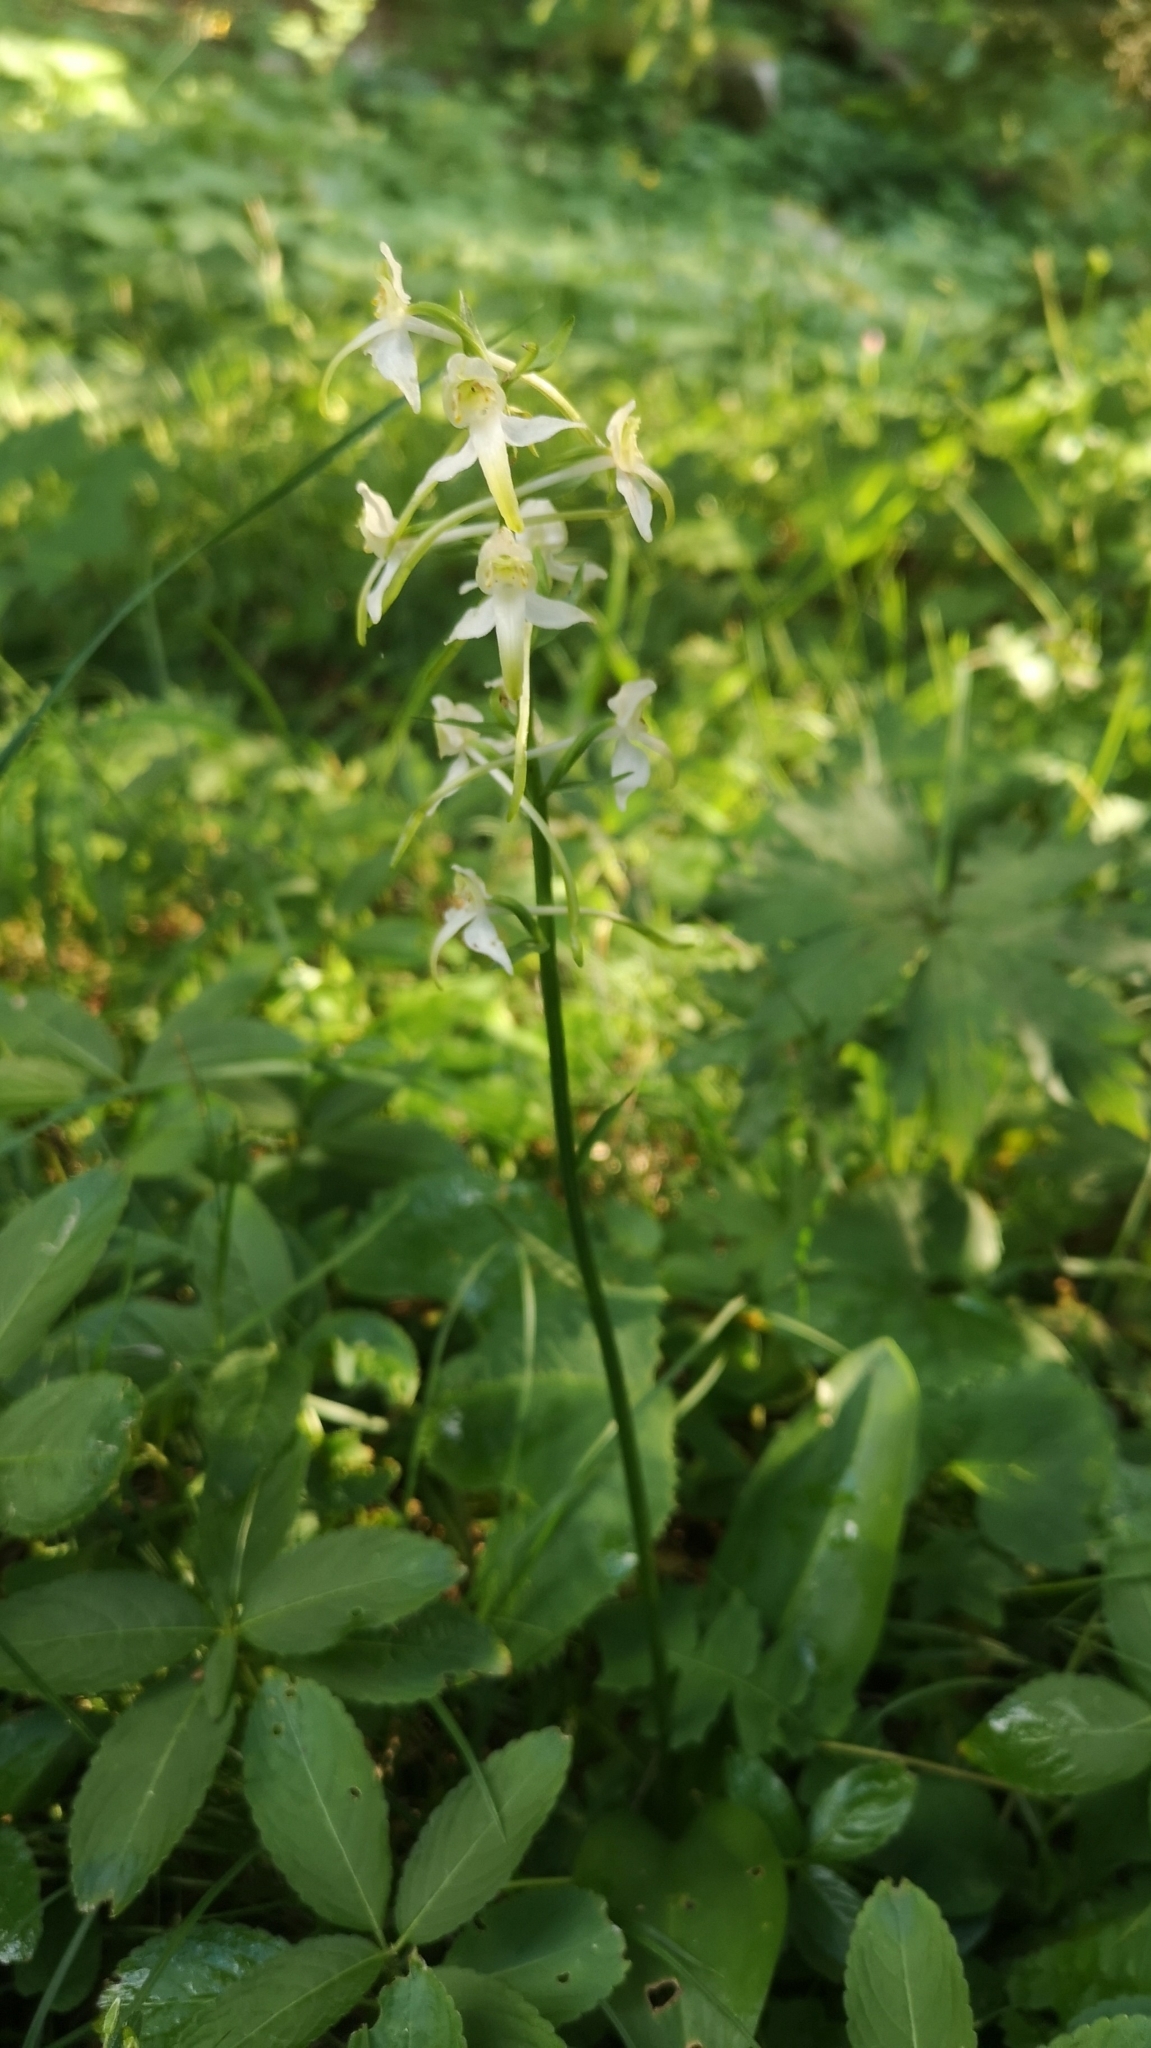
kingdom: Plantae
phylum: Tracheophyta
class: Liliopsida
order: Asparagales
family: Orchidaceae
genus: Platanthera
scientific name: Platanthera chlorantha
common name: Greater butterfly-orchid
